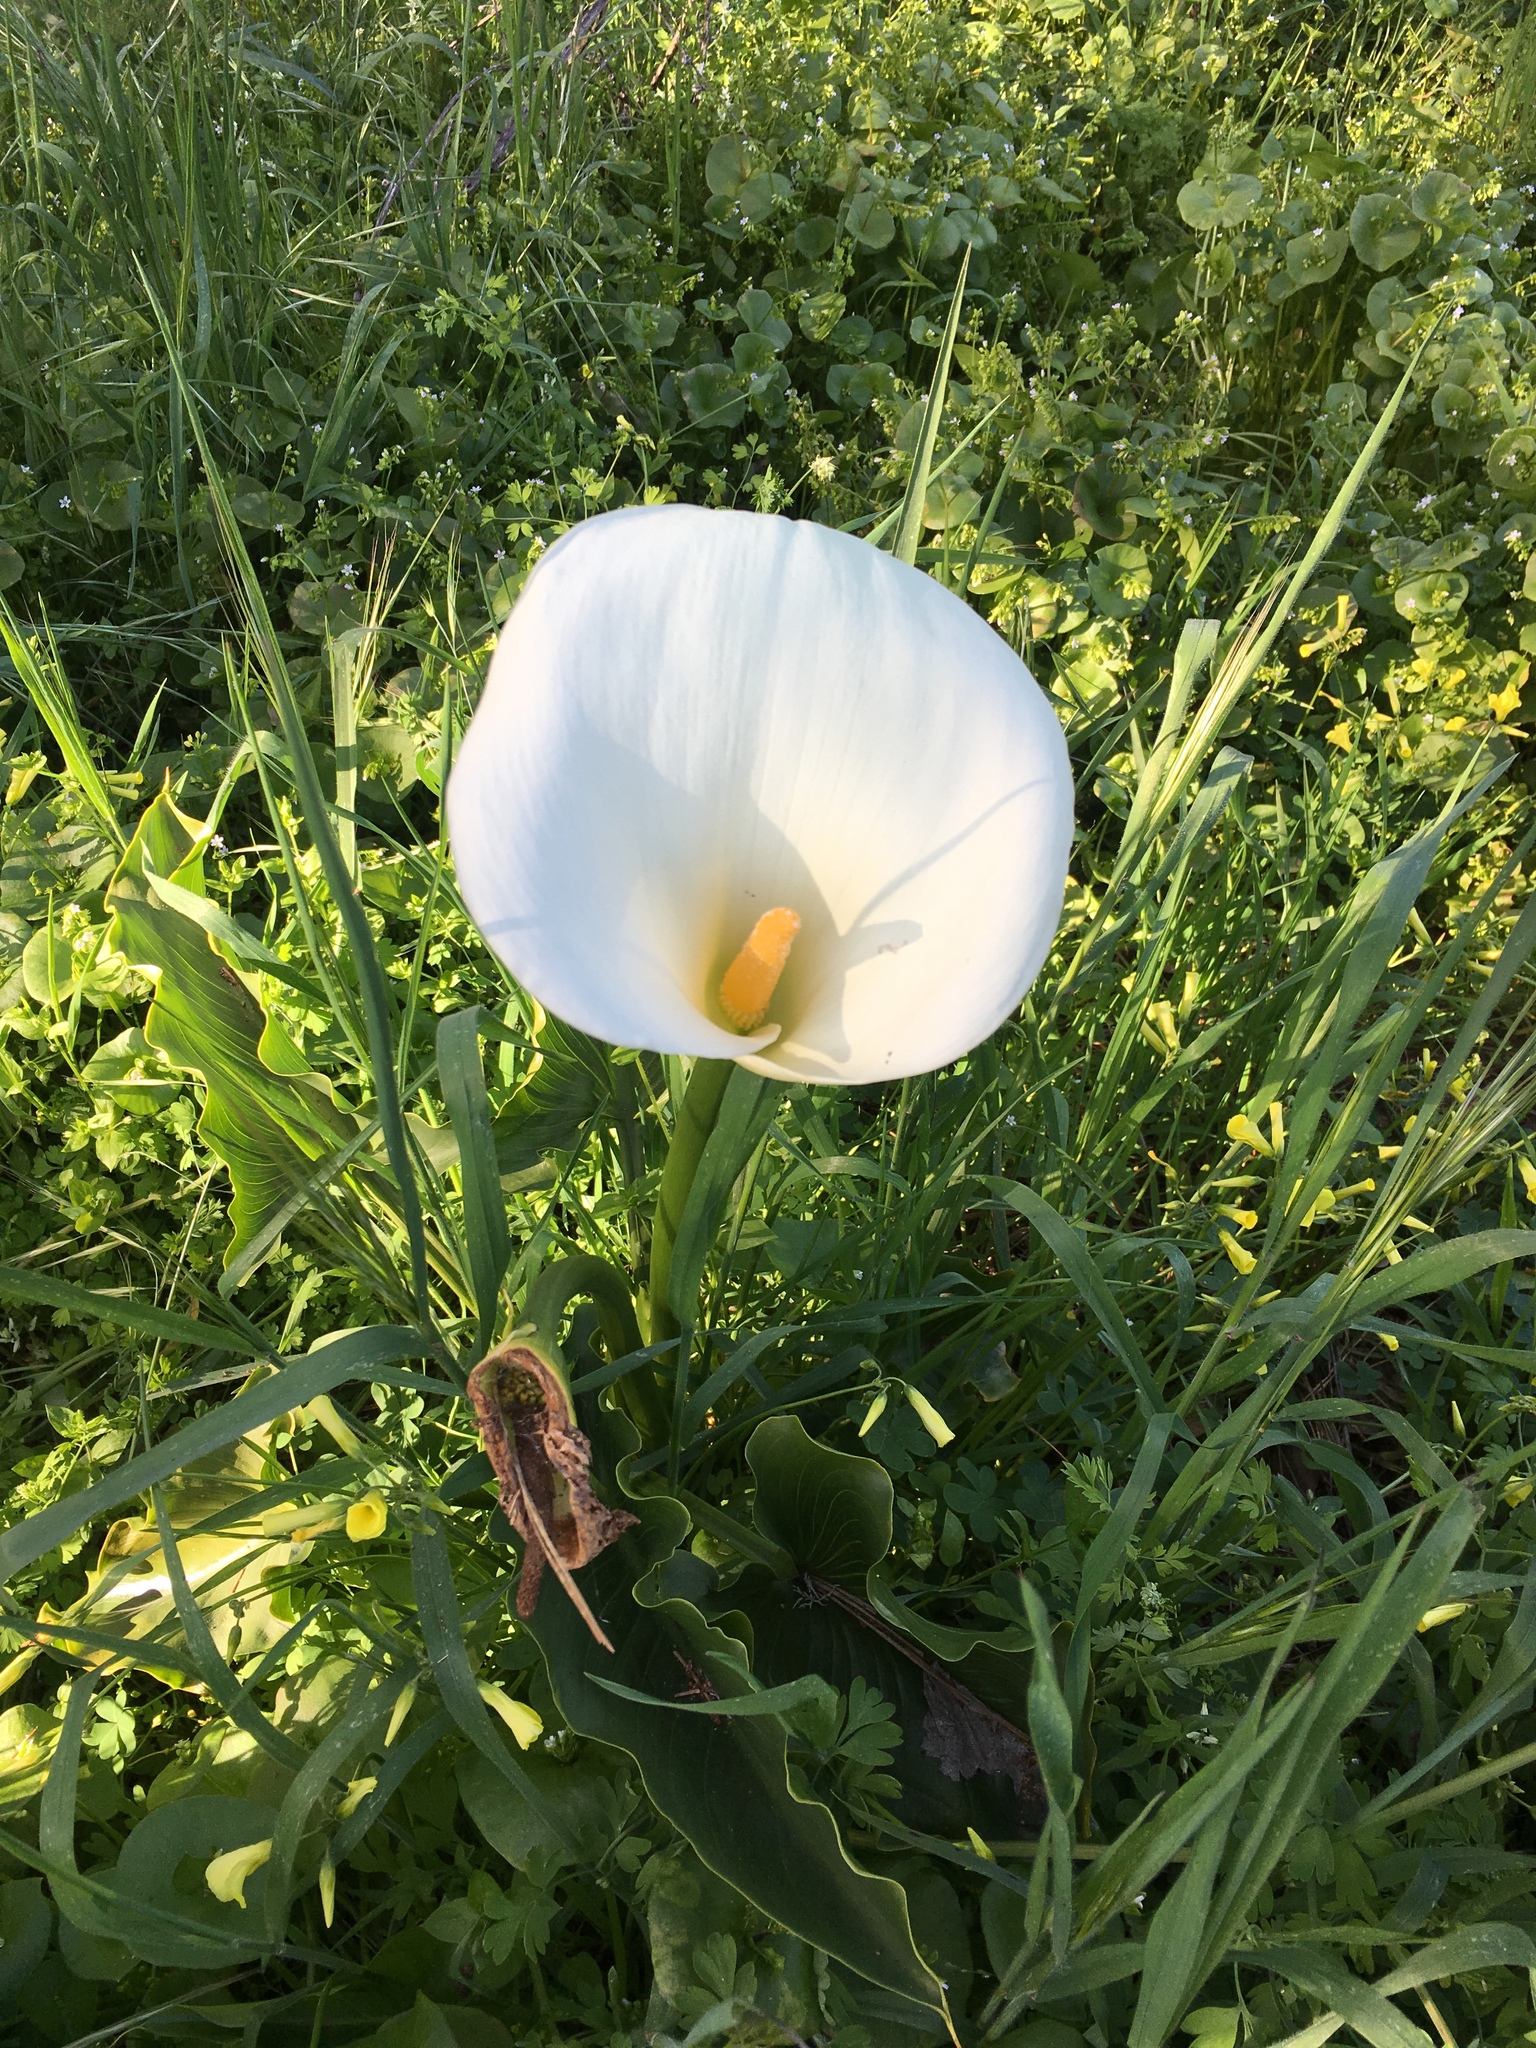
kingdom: Plantae
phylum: Tracheophyta
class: Liliopsida
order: Alismatales
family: Araceae
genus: Zantedeschia
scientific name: Zantedeschia aethiopica
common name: Altar-lily
